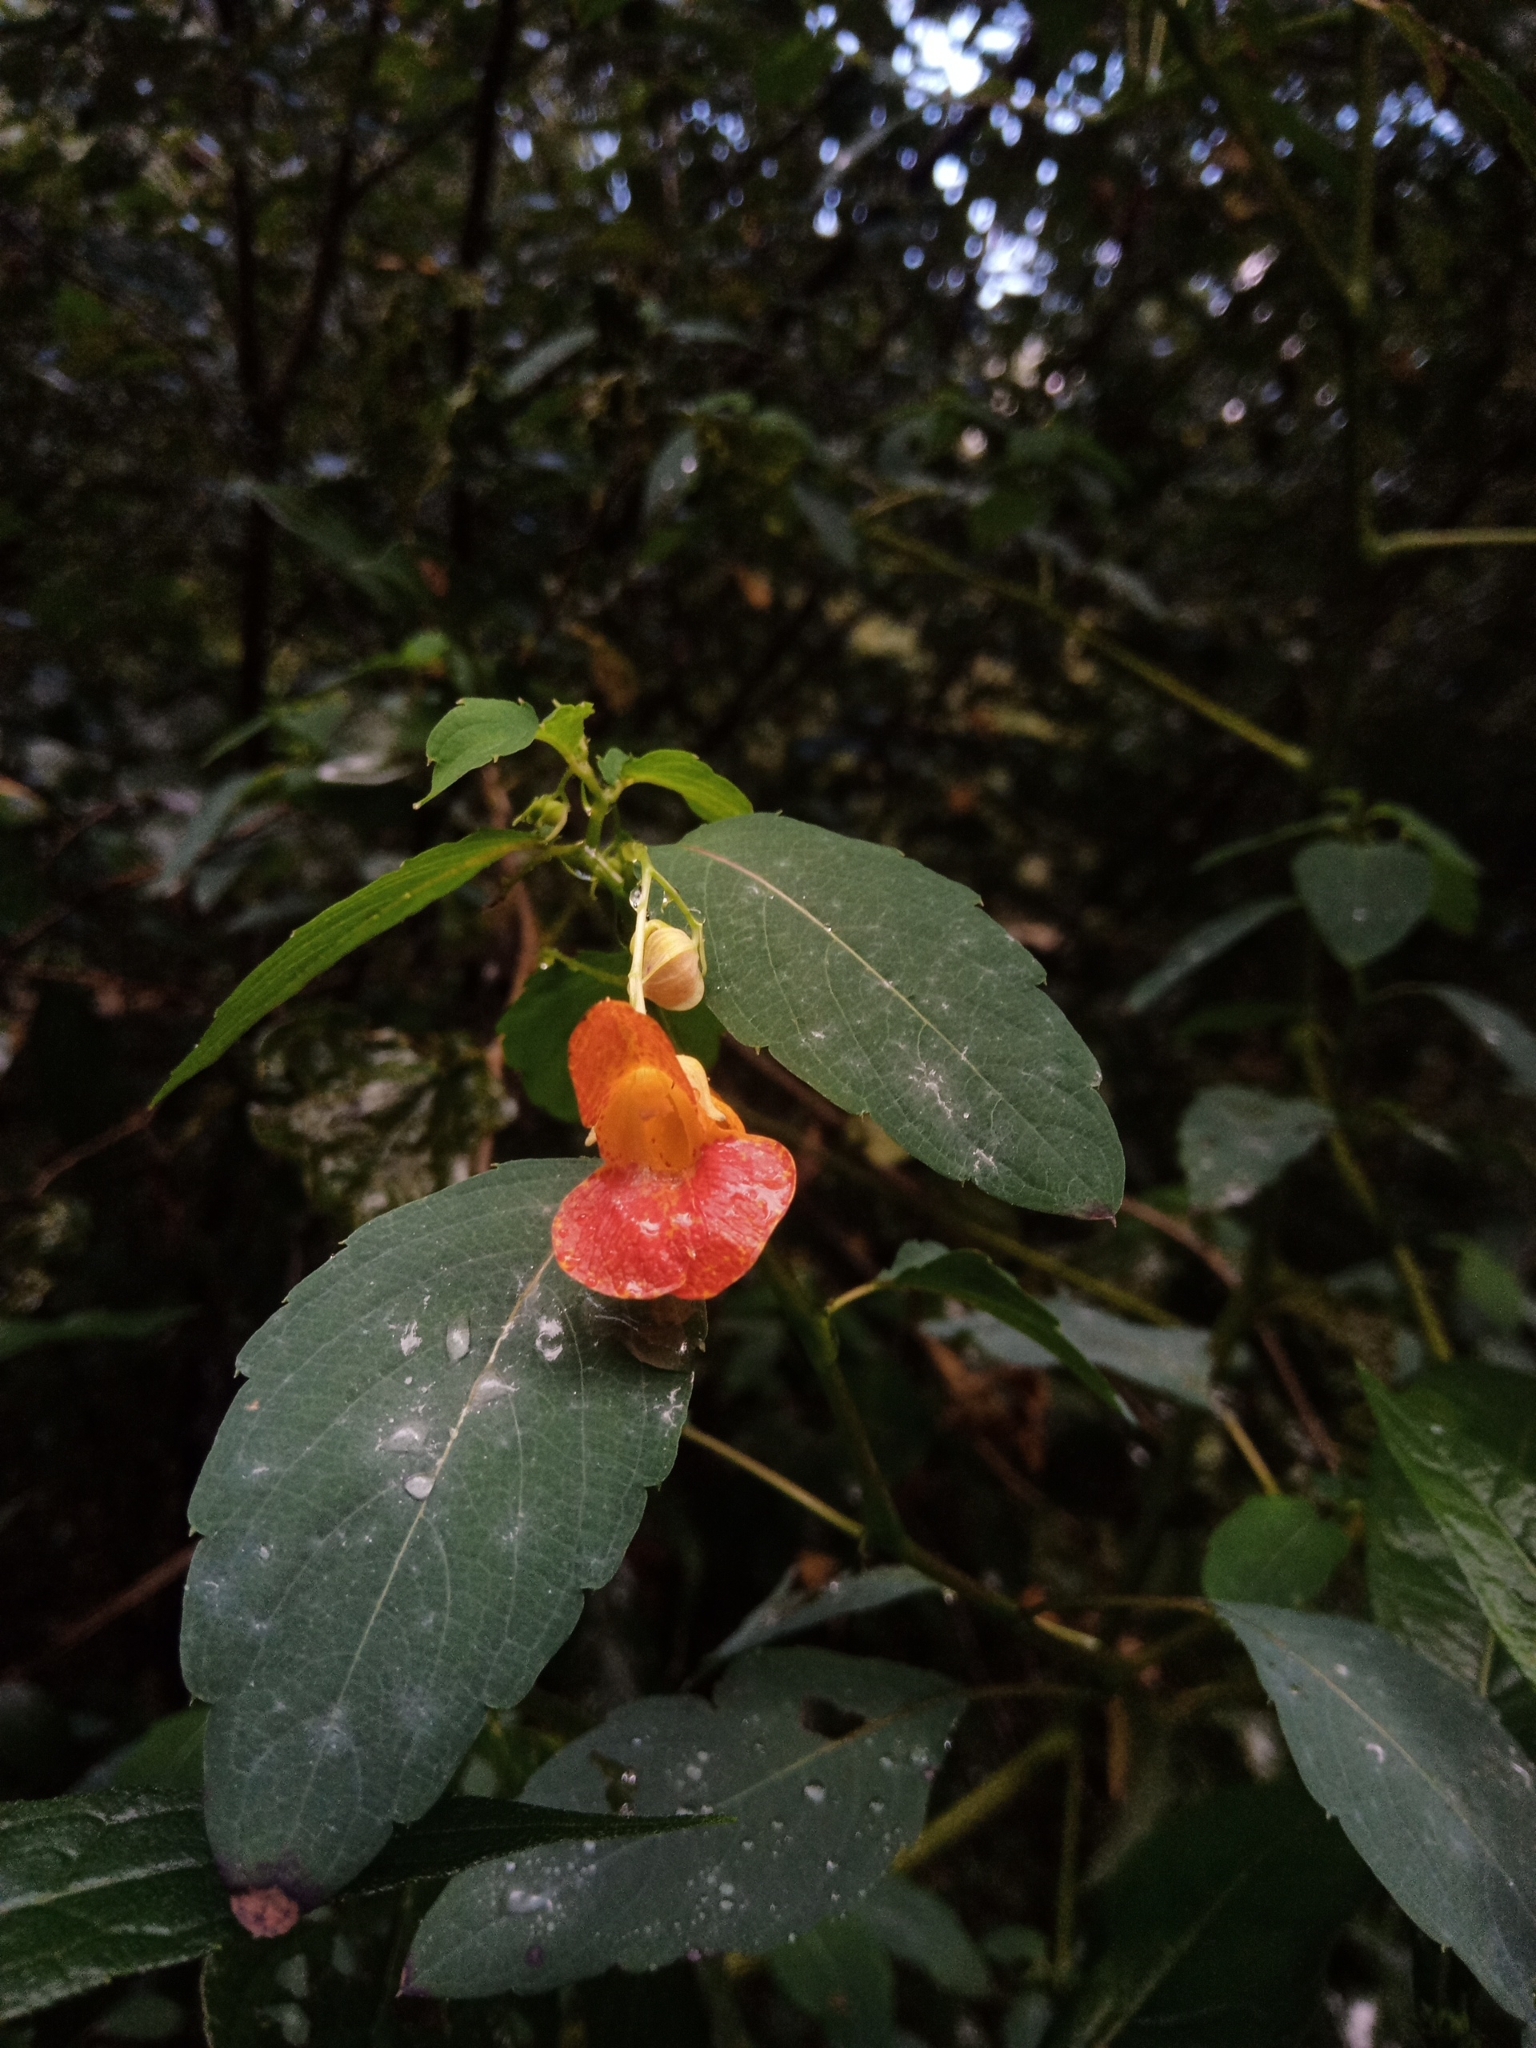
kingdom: Plantae
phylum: Tracheophyta
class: Magnoliopsida
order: Ericales
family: Balsaminaceae
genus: Impatiens
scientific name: Impatiens capensis
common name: Orange balsam
